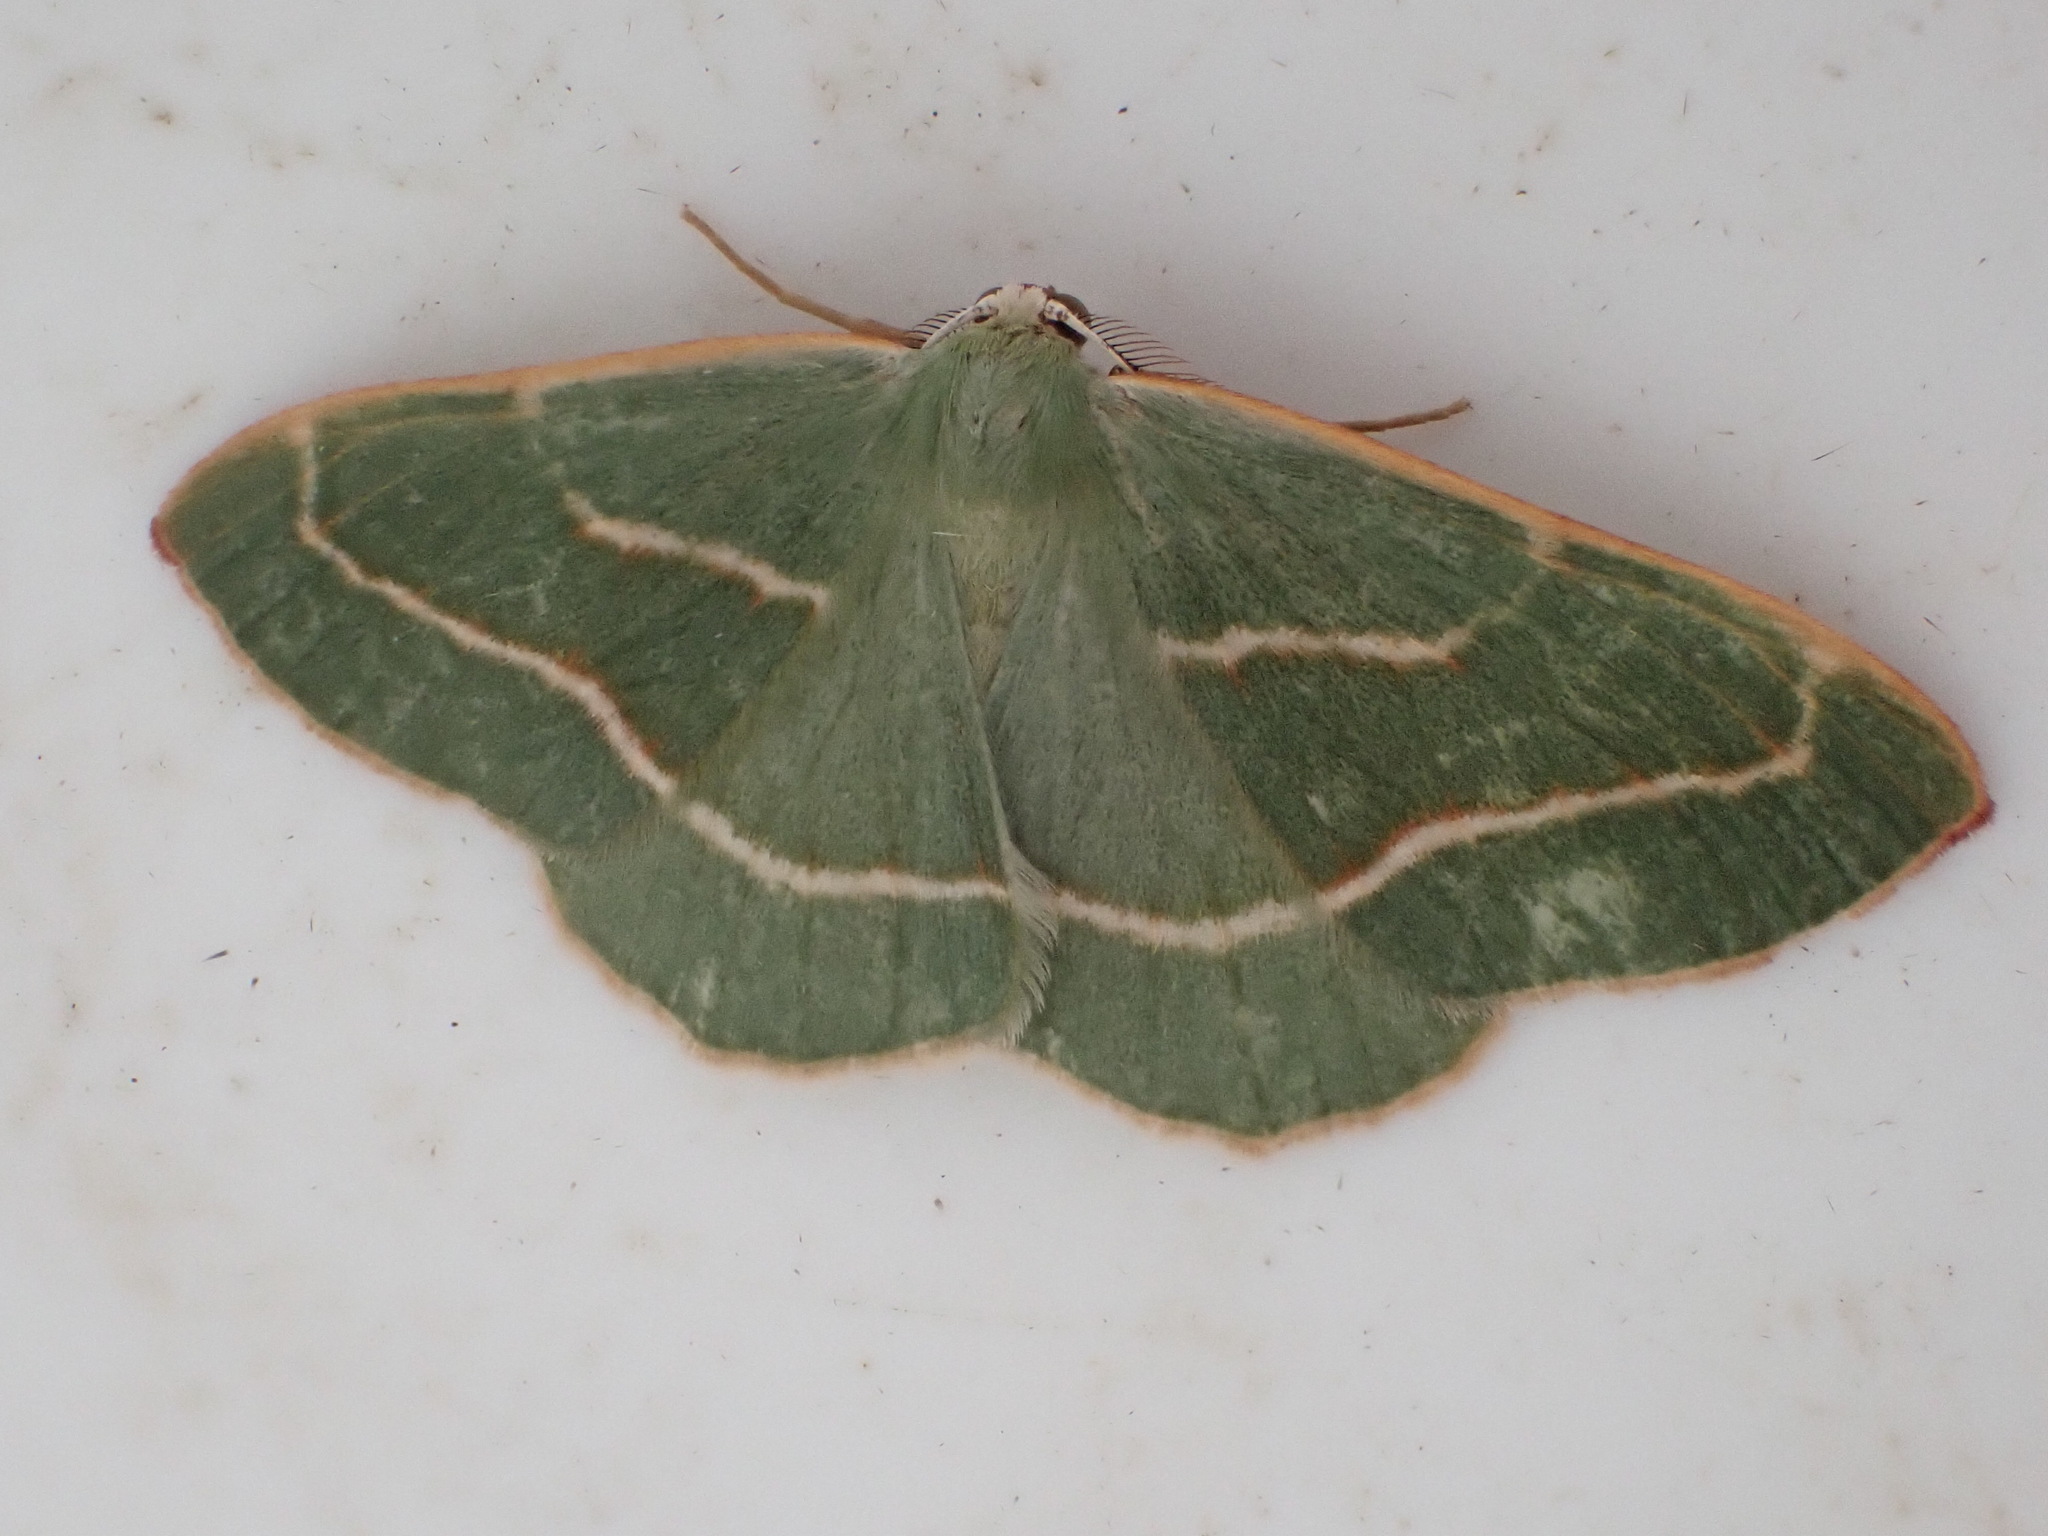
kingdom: Animalia
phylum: Arthropoda
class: Insecta
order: Lepidoptera
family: Geometridae
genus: Hylaea
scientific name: Hylaea fasciaria
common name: Barred red
